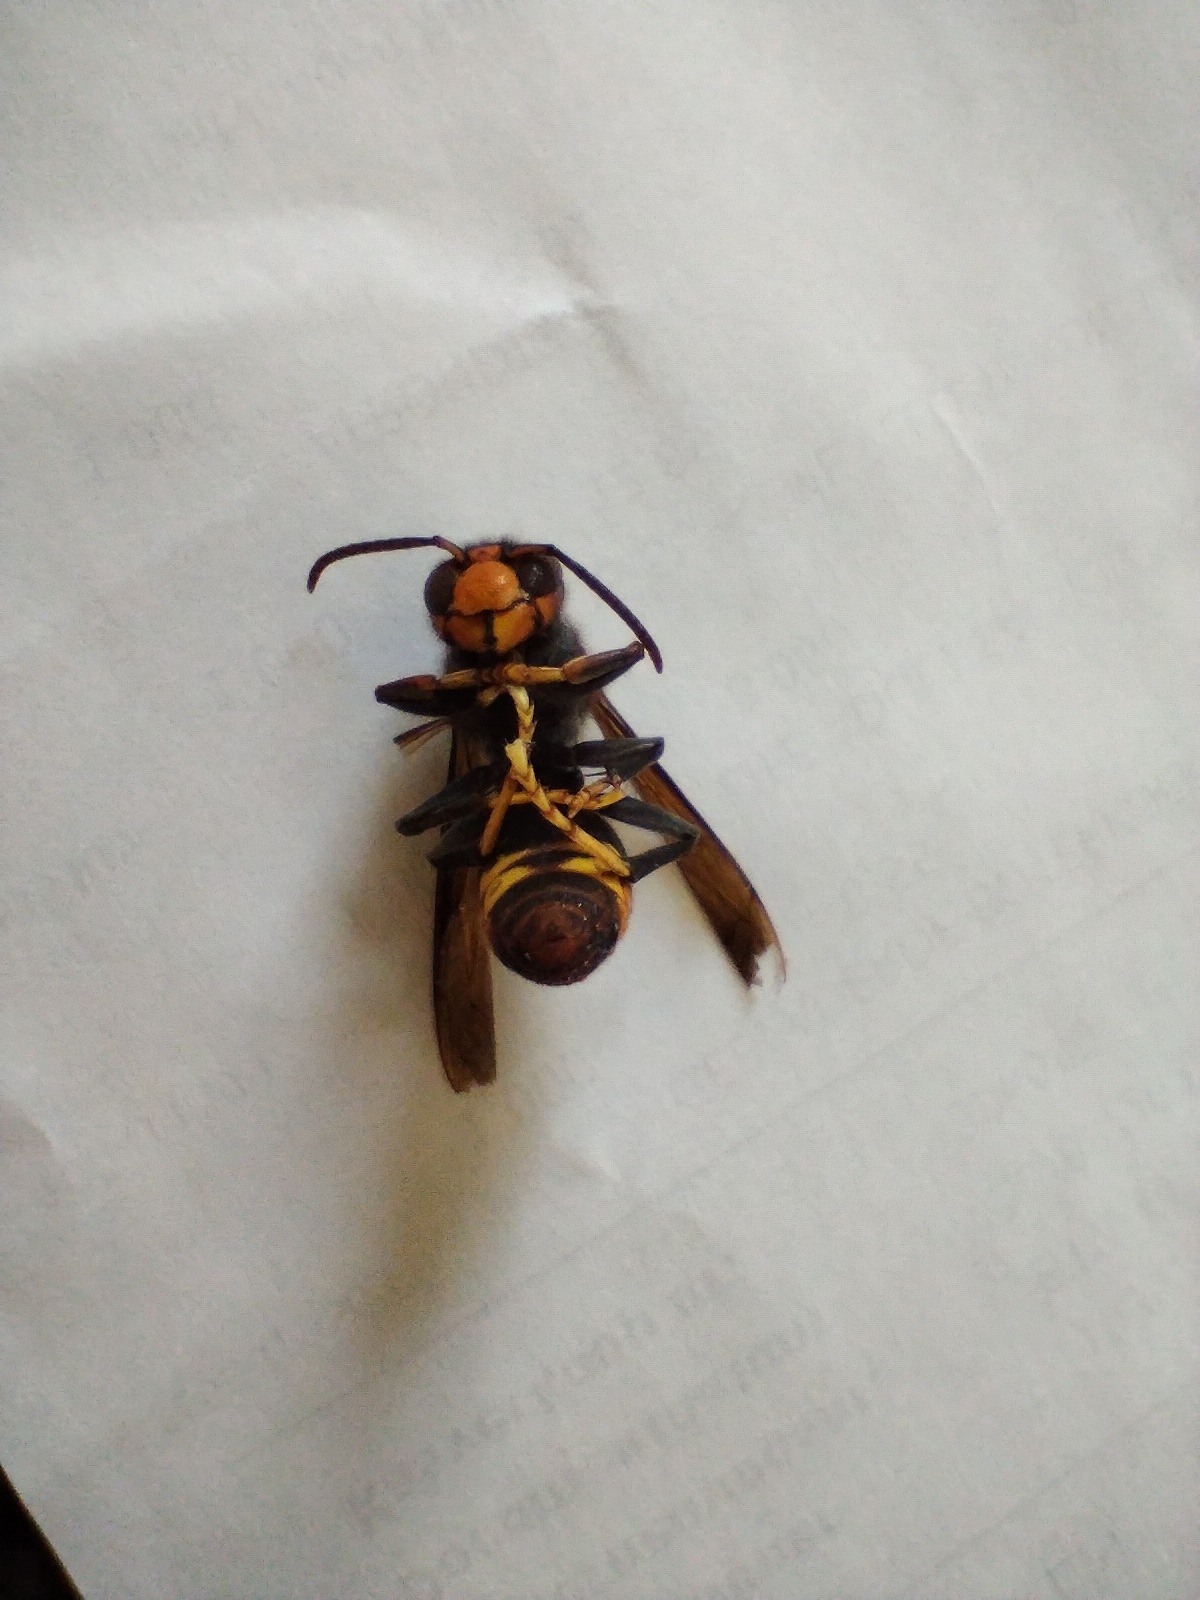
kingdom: Animalia
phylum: Arthropoda
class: Insecta
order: Hymenoptera
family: Vespidae
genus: Vespa
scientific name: Vespa velutina
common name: Asian hornet
